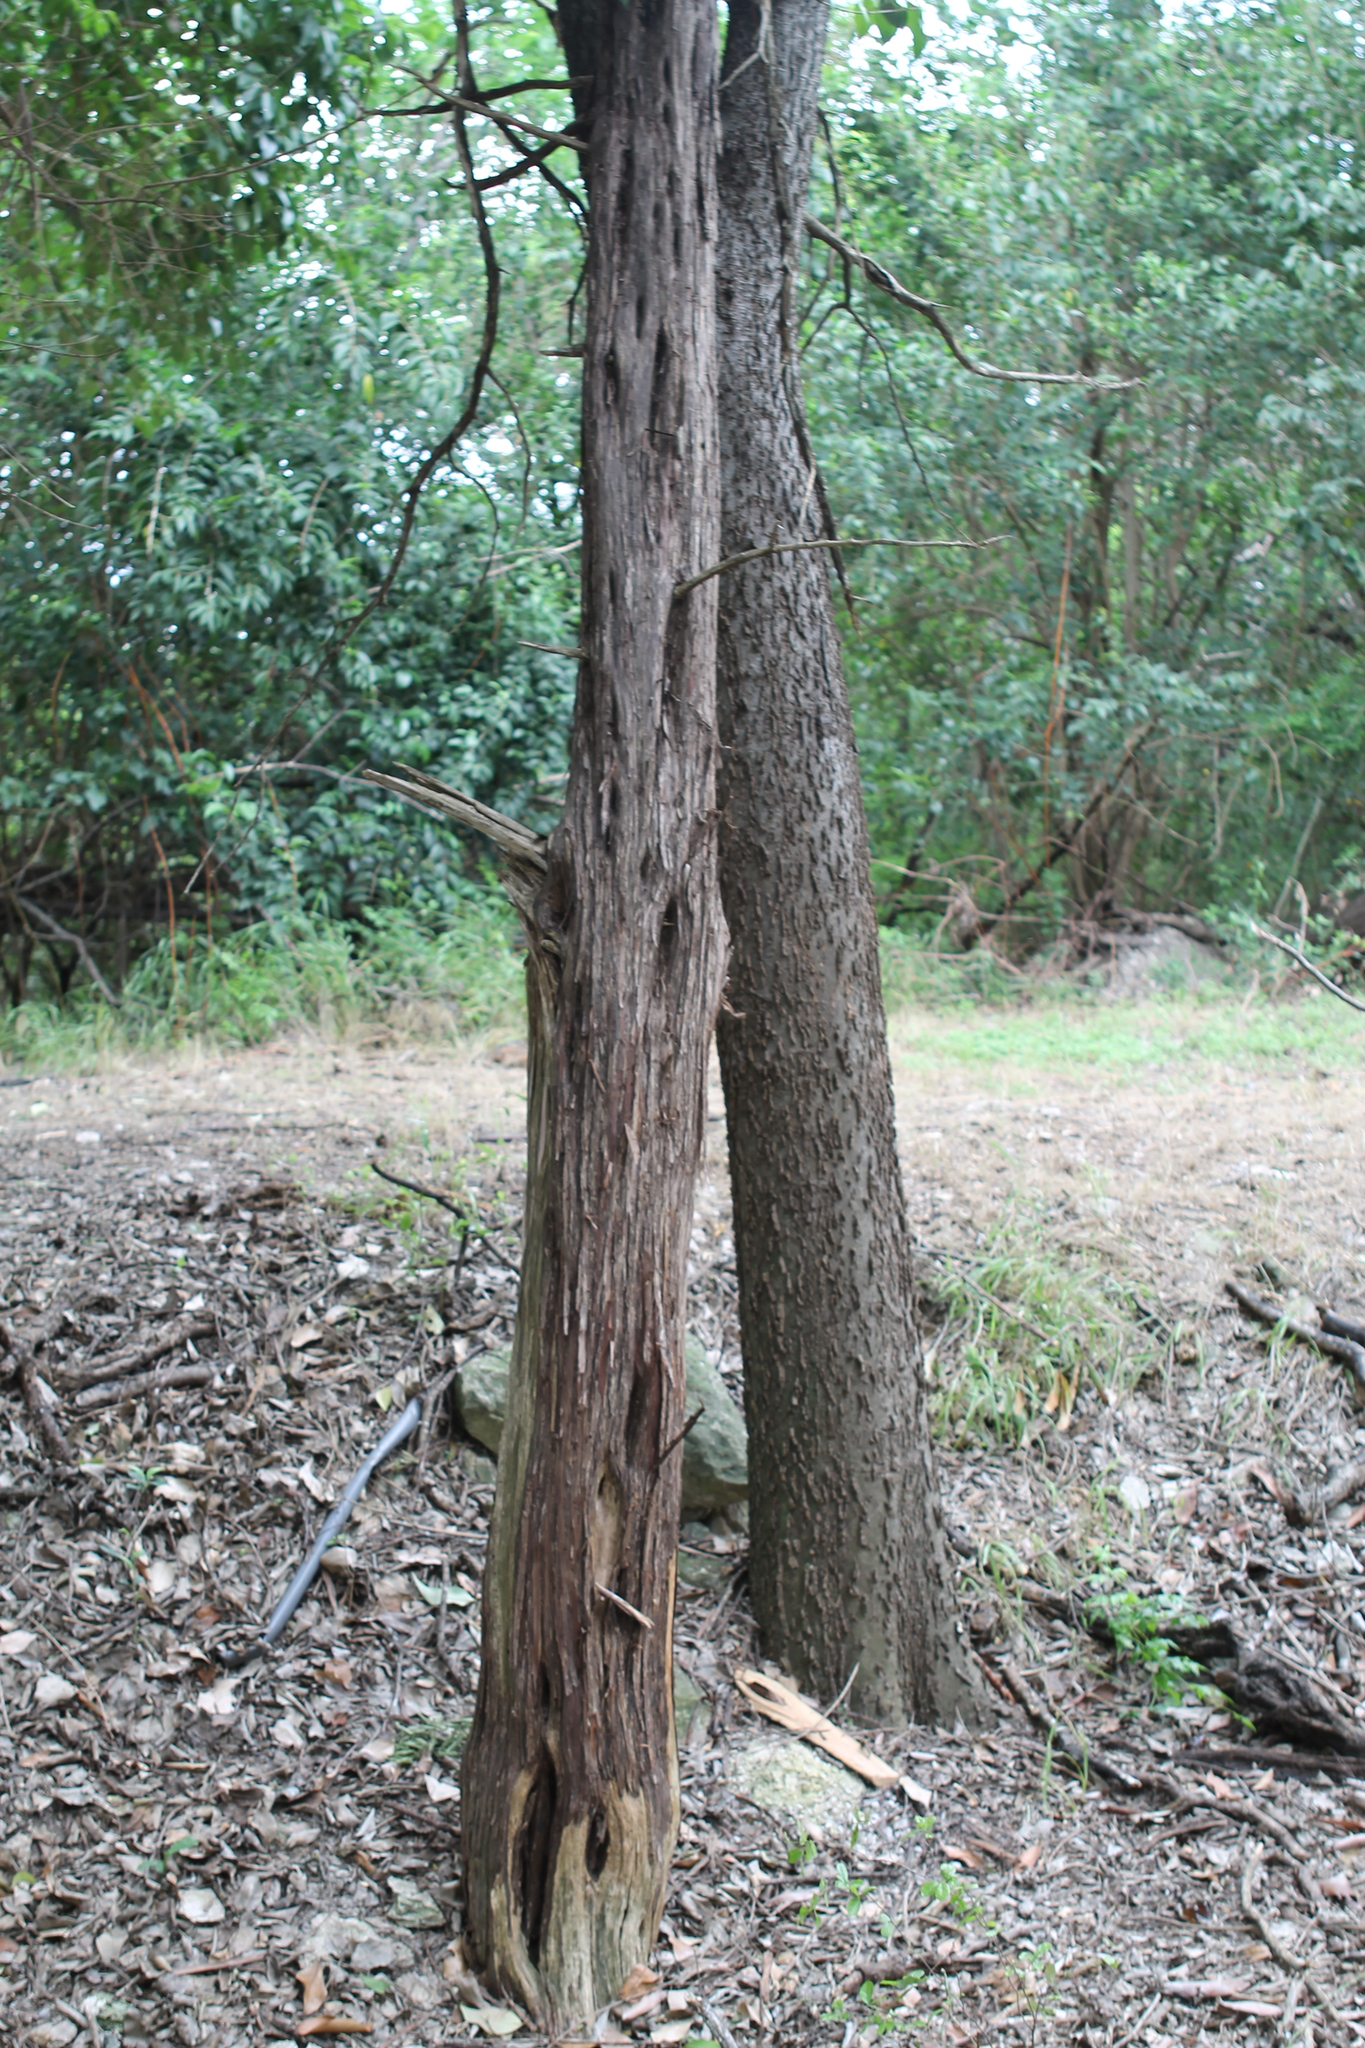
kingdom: Plantae
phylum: Tracheophyta
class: Pinopsida
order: Pinales
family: Cupressaceae
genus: Juniperus
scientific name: Juniperus ashei
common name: Mexican juniper
